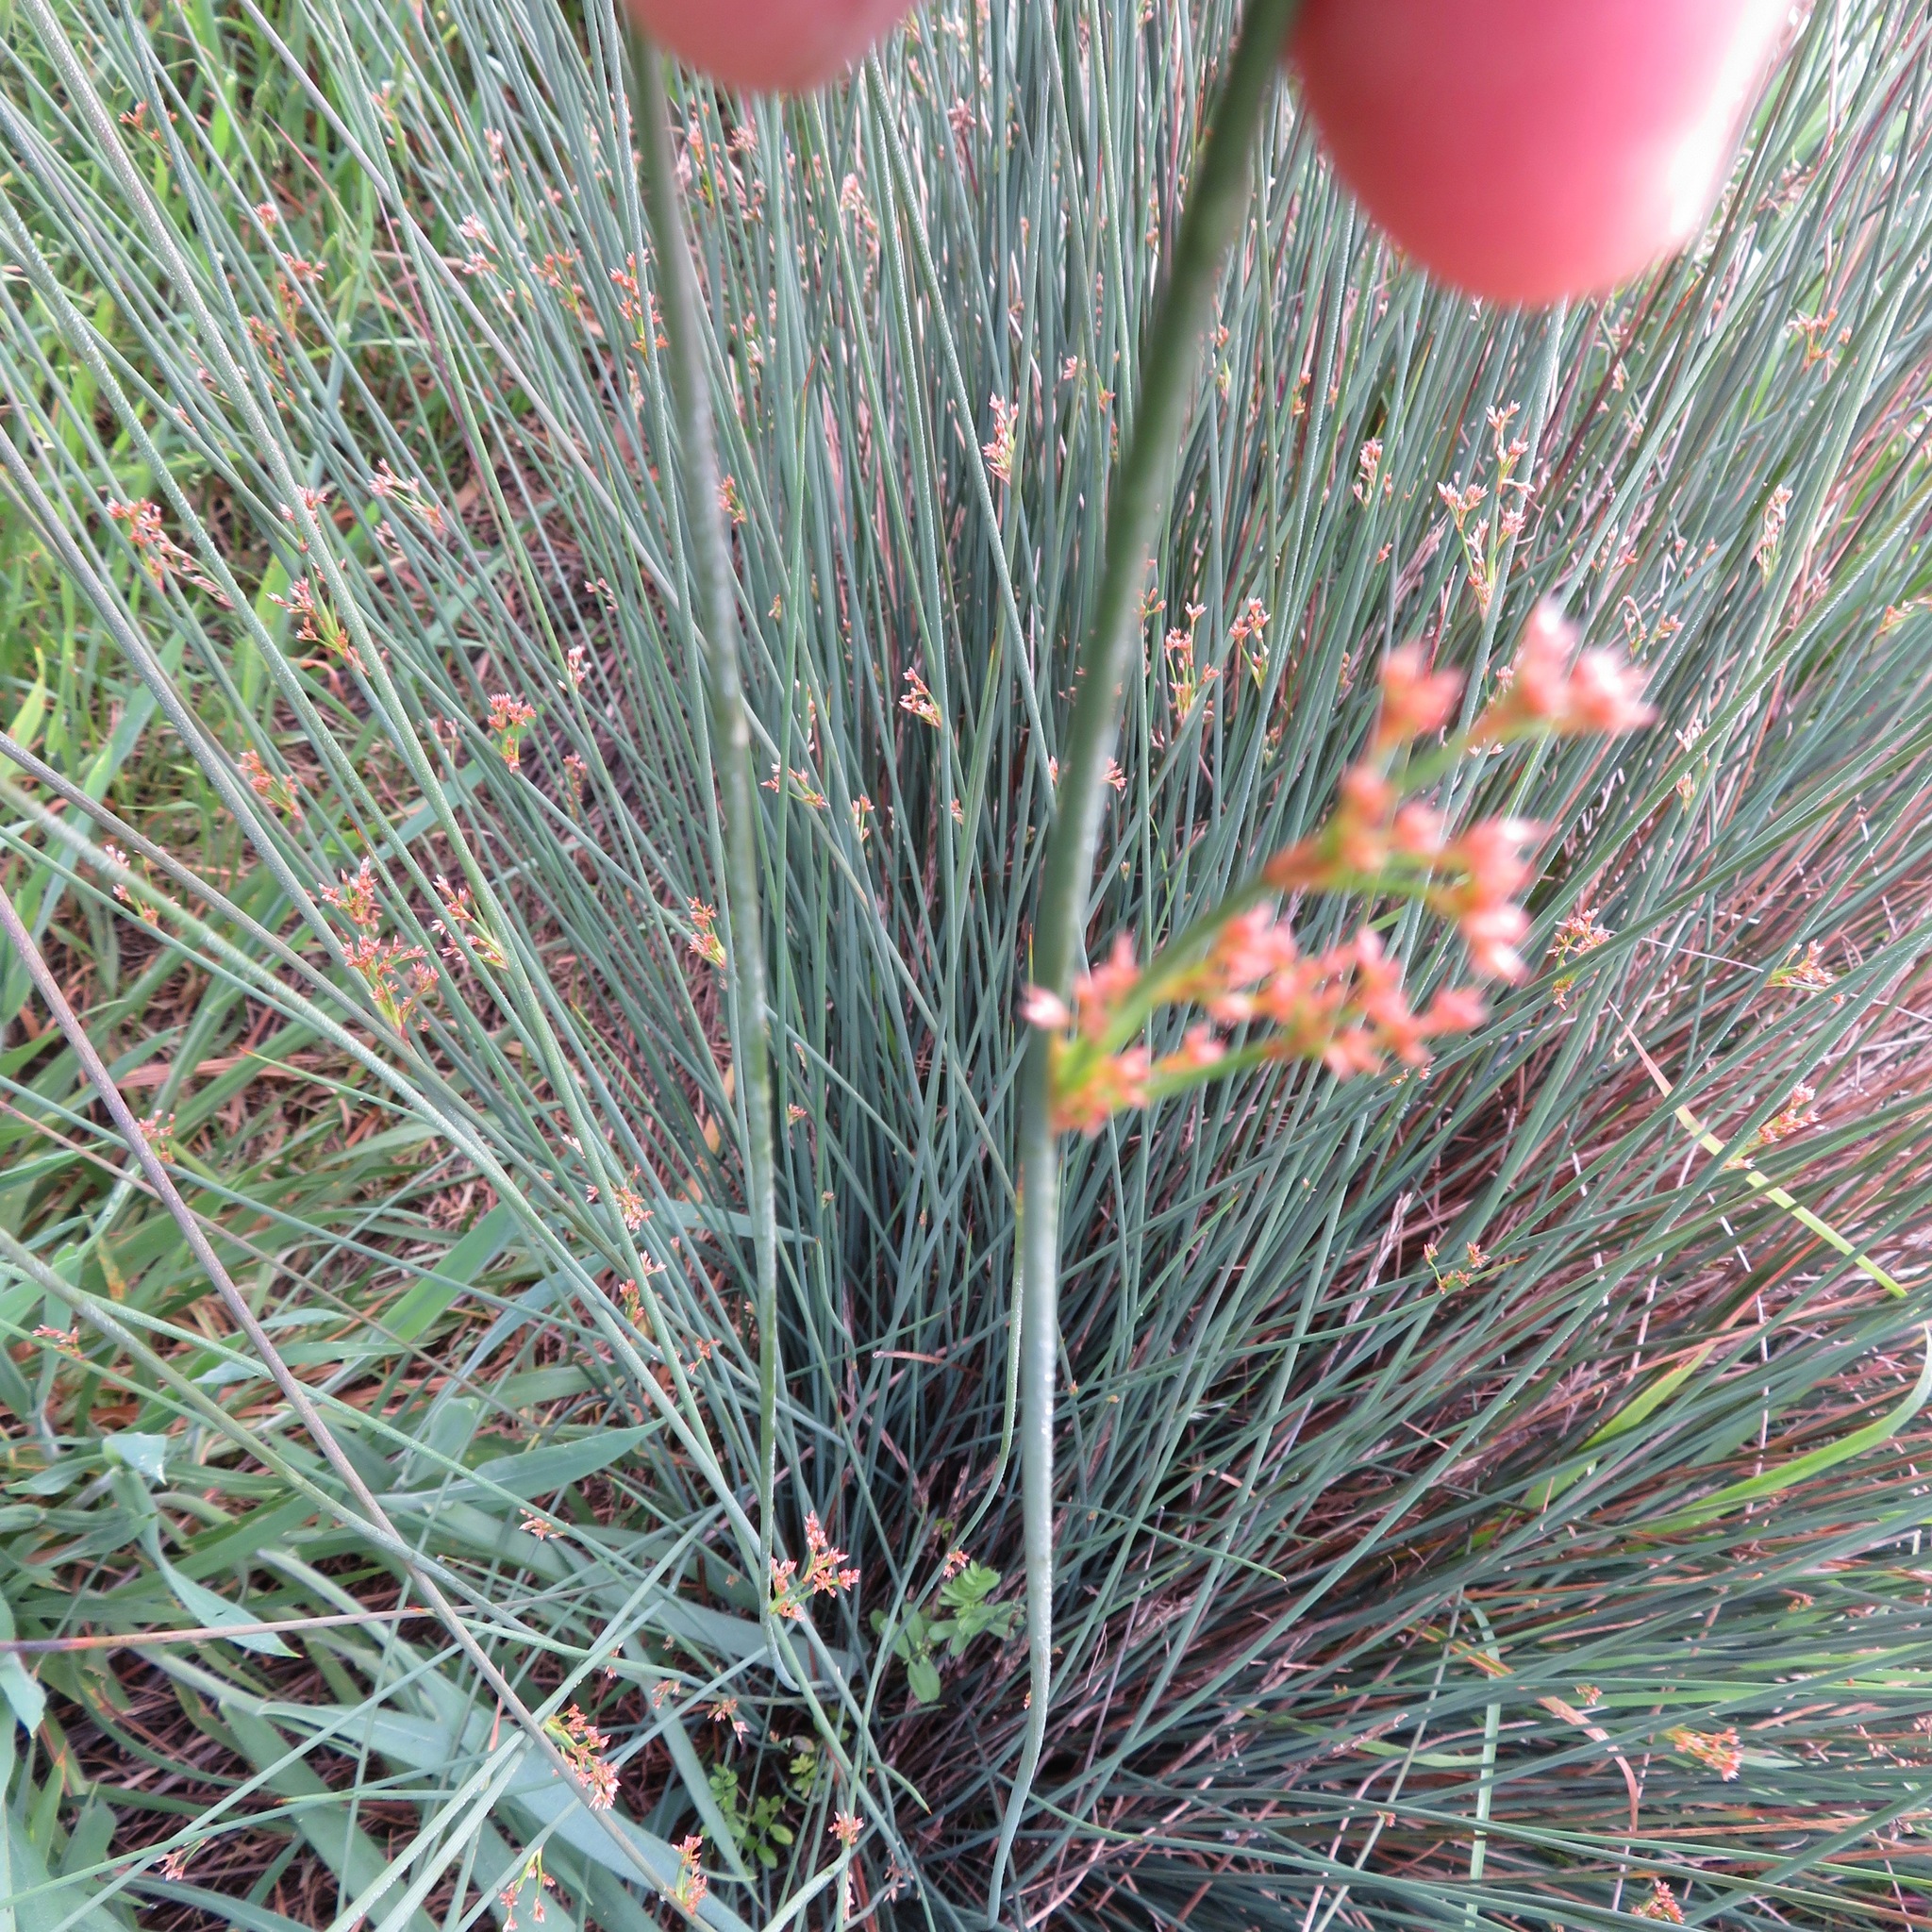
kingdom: Plantae
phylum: Tracheophyta
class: Liliopsida
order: Poales
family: Juncaceae
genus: Juncus
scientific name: Juncus patens
